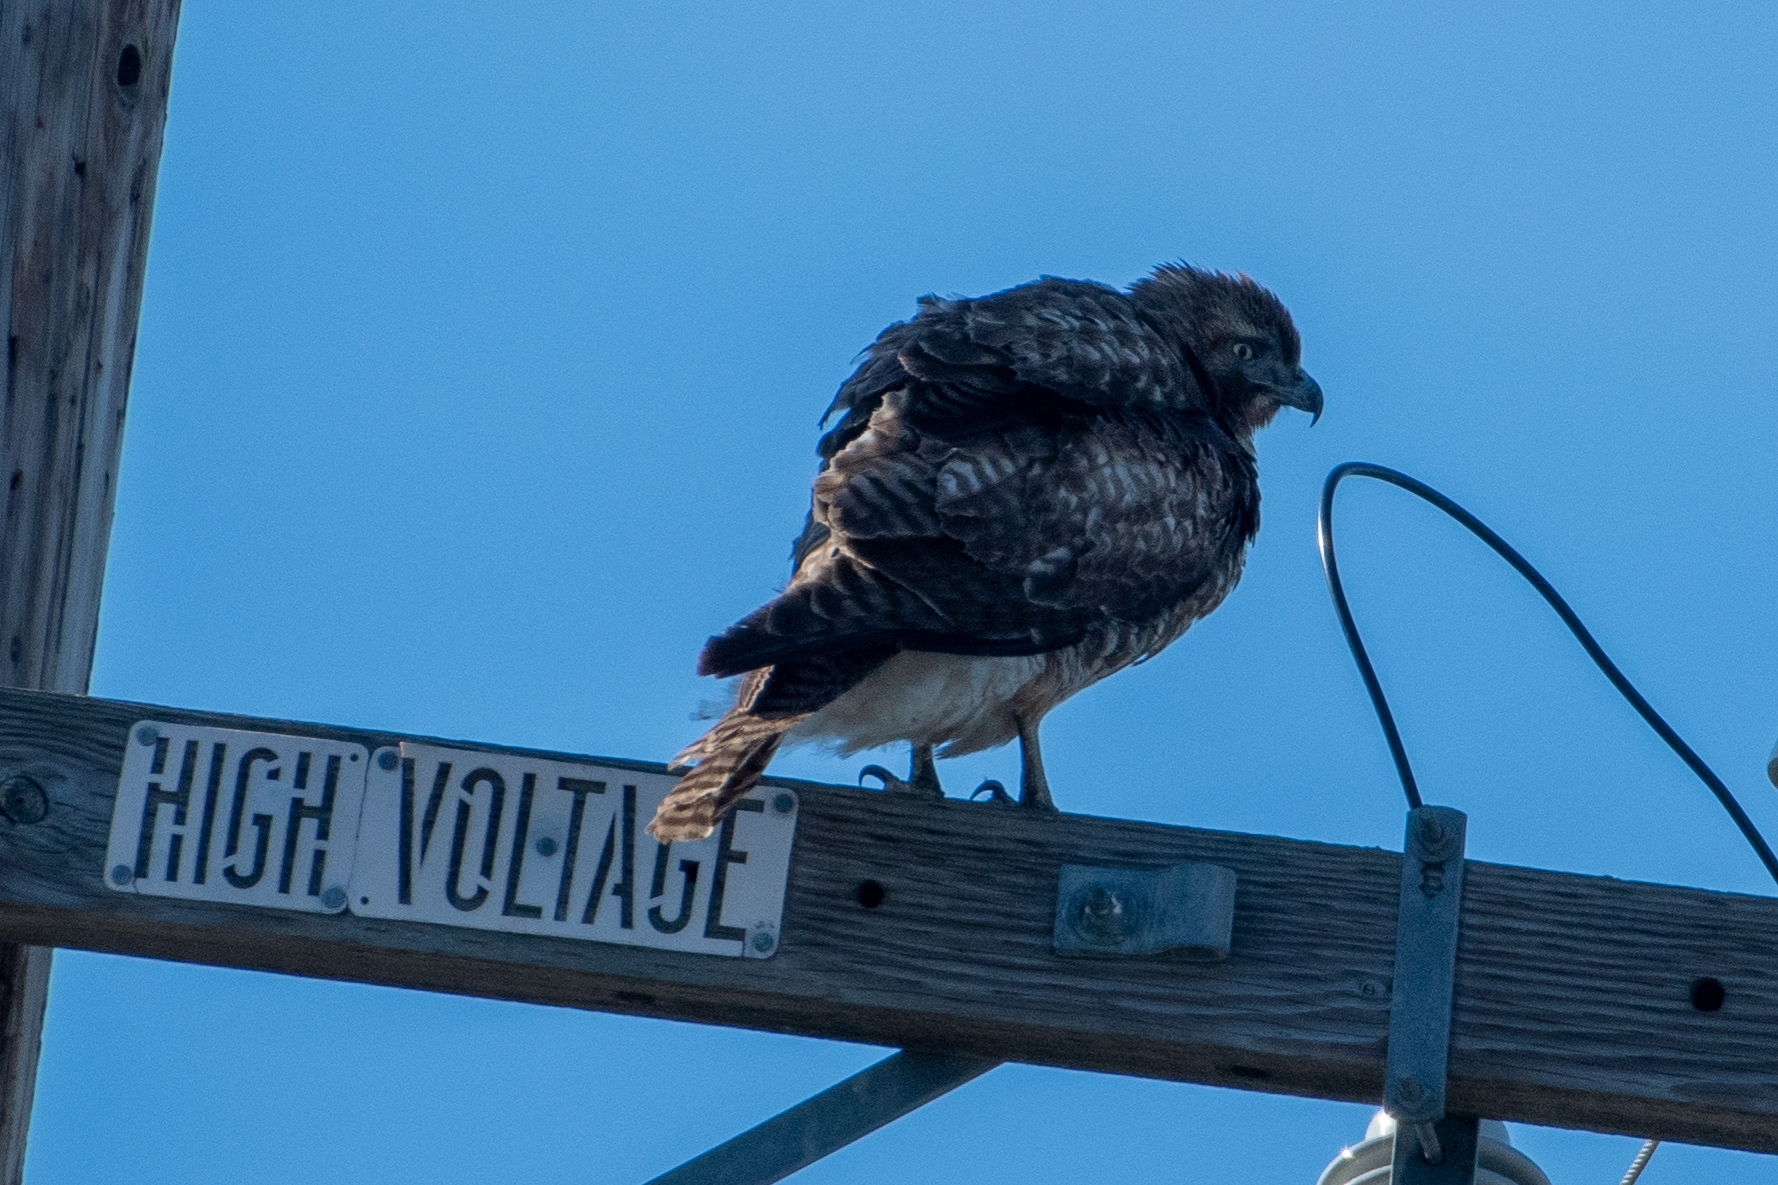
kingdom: Animalia
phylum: Chordata
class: Aves
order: Accipitriformes
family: Accipitridae
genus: Buteo
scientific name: Buteo jamaicensis
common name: Red-tailed hawk
